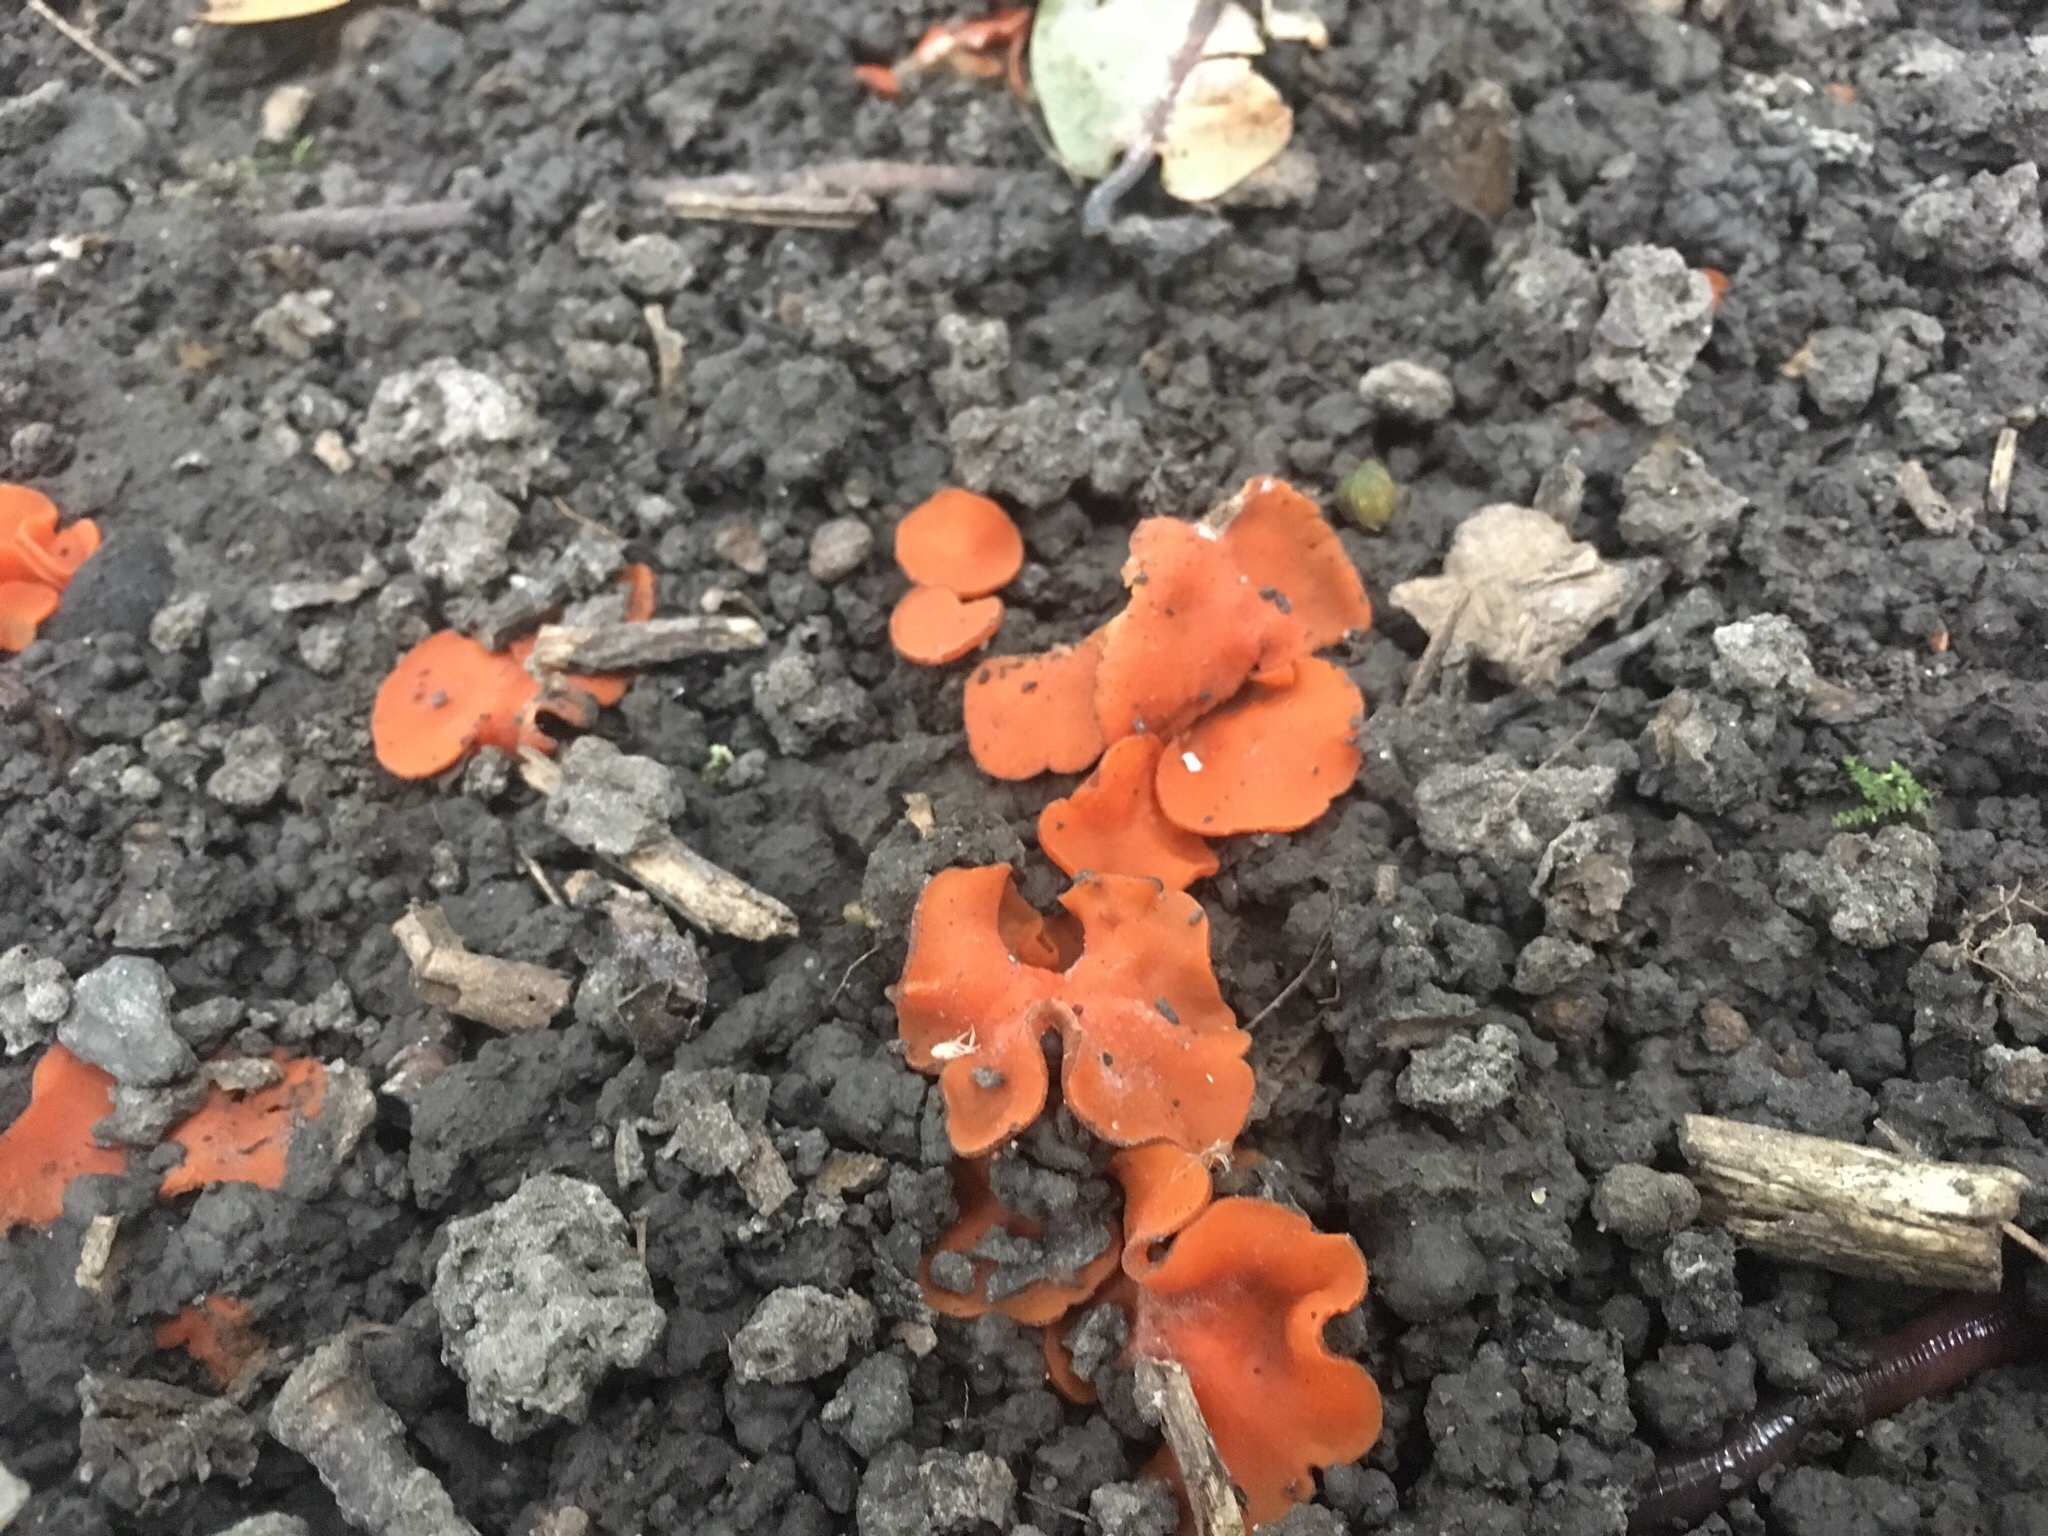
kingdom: Fungi
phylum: Ascomycota
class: Pezizomycetes
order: Pezizales
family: Pyronemataceae
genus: Aleuria
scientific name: Aleuria aurantia
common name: Orange peel fungus
